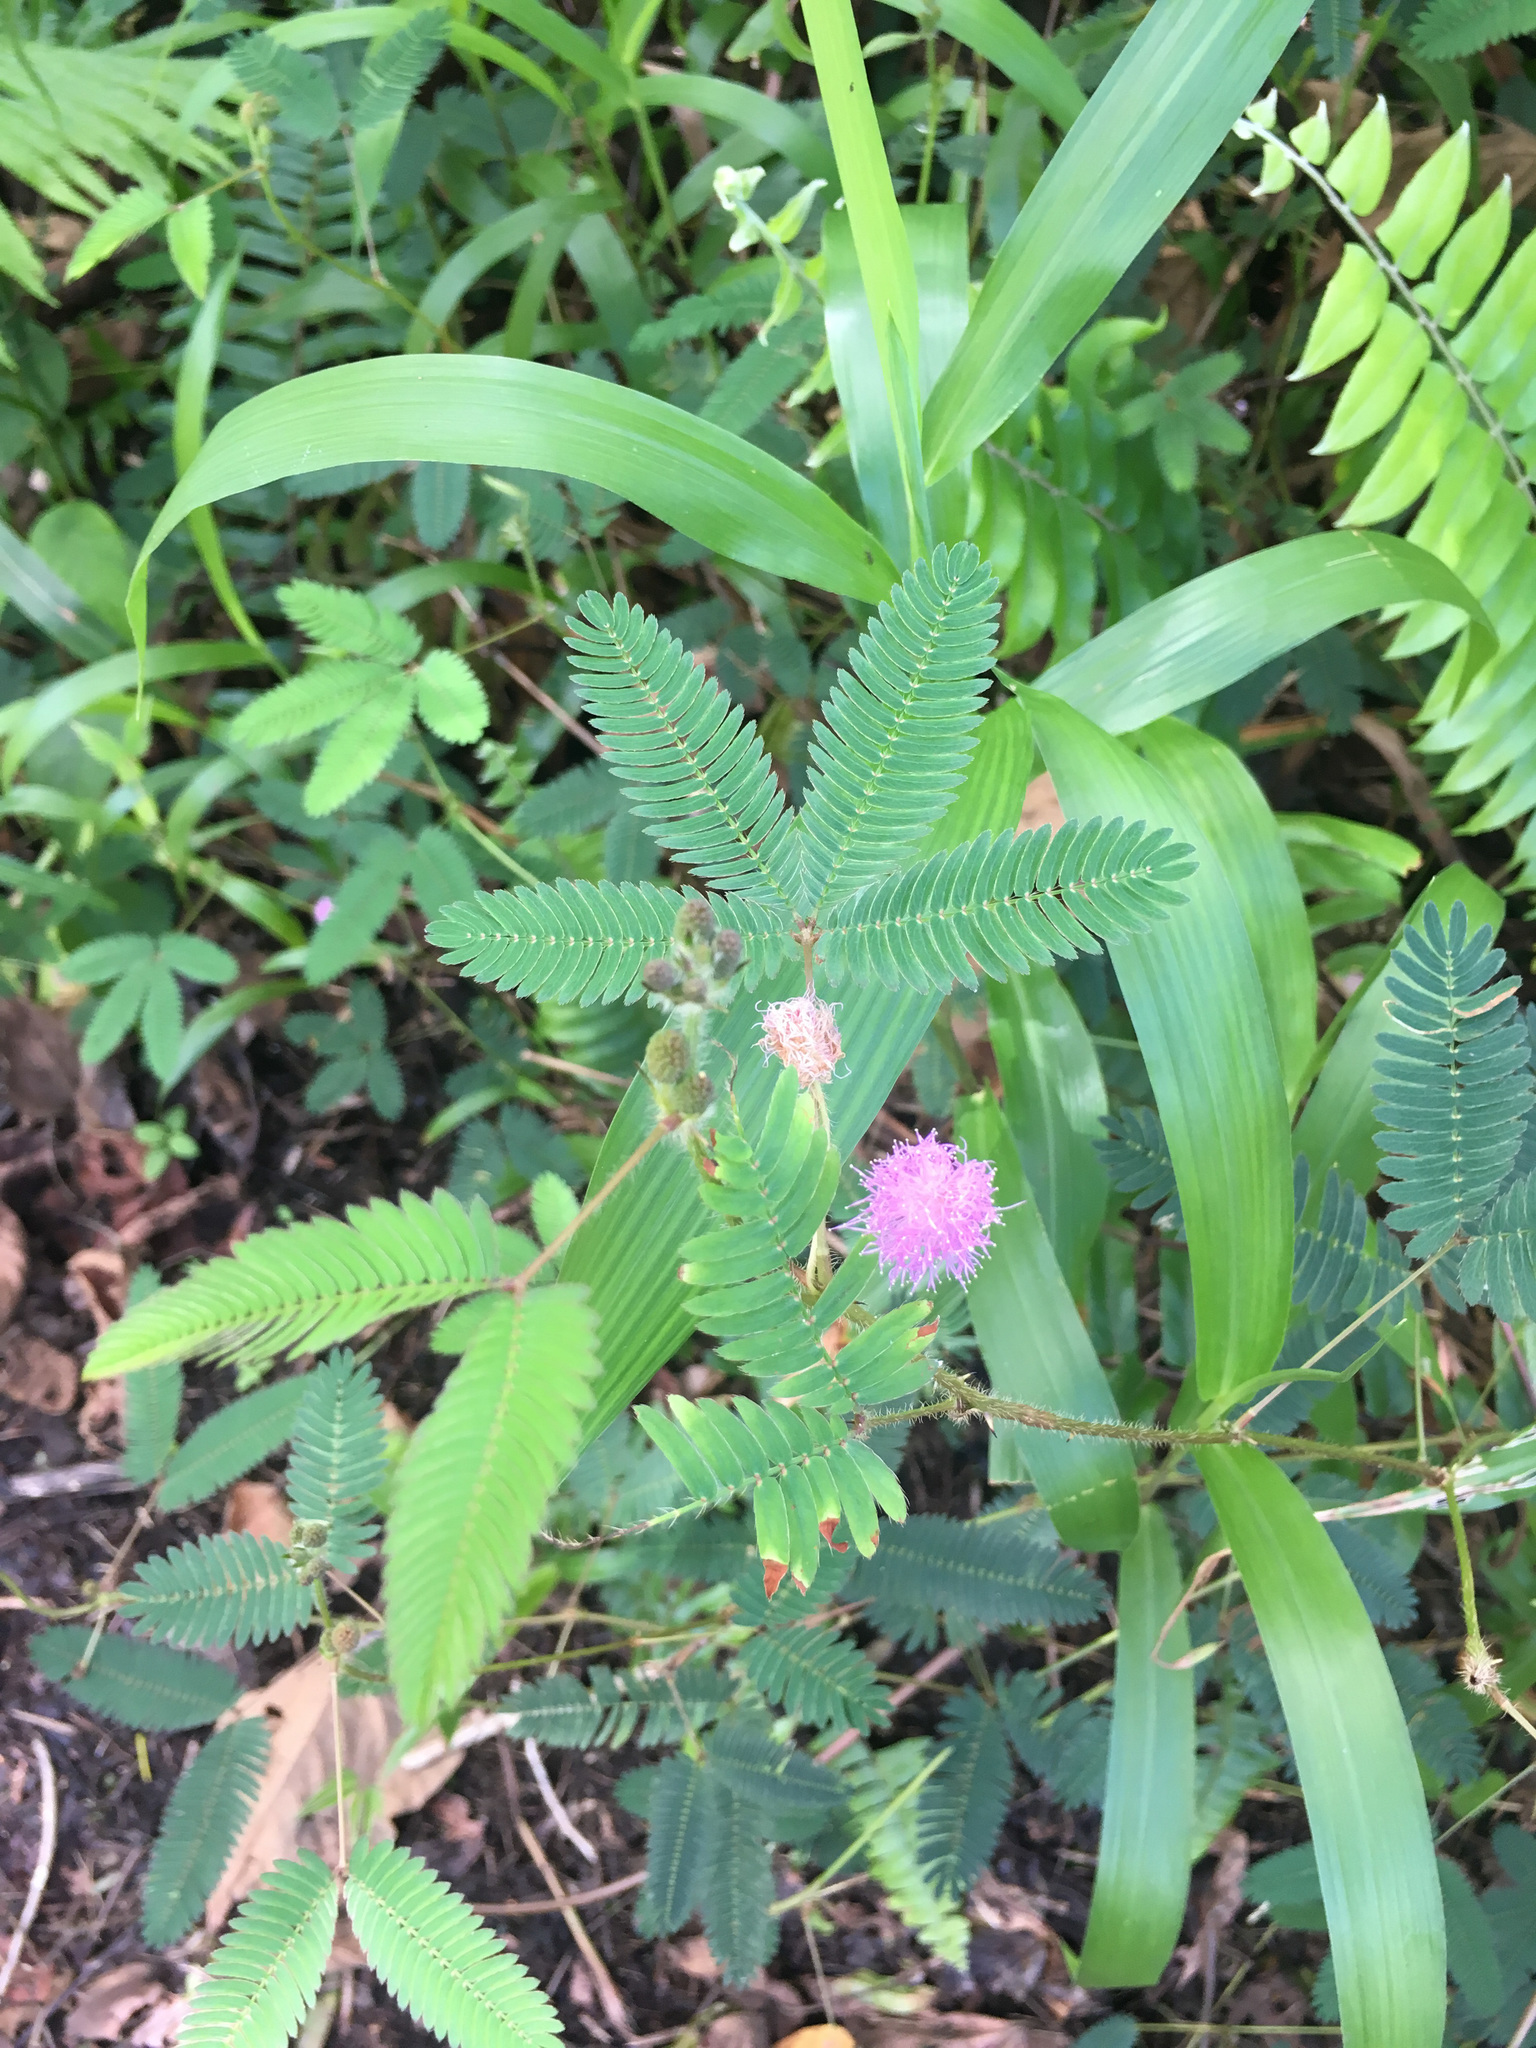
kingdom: Plantae
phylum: Tracheophyta
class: Magnoliopsida
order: Fabales
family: Fabaceae
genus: Mimosa
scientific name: Mimosa pudica
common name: Sensitive plant
